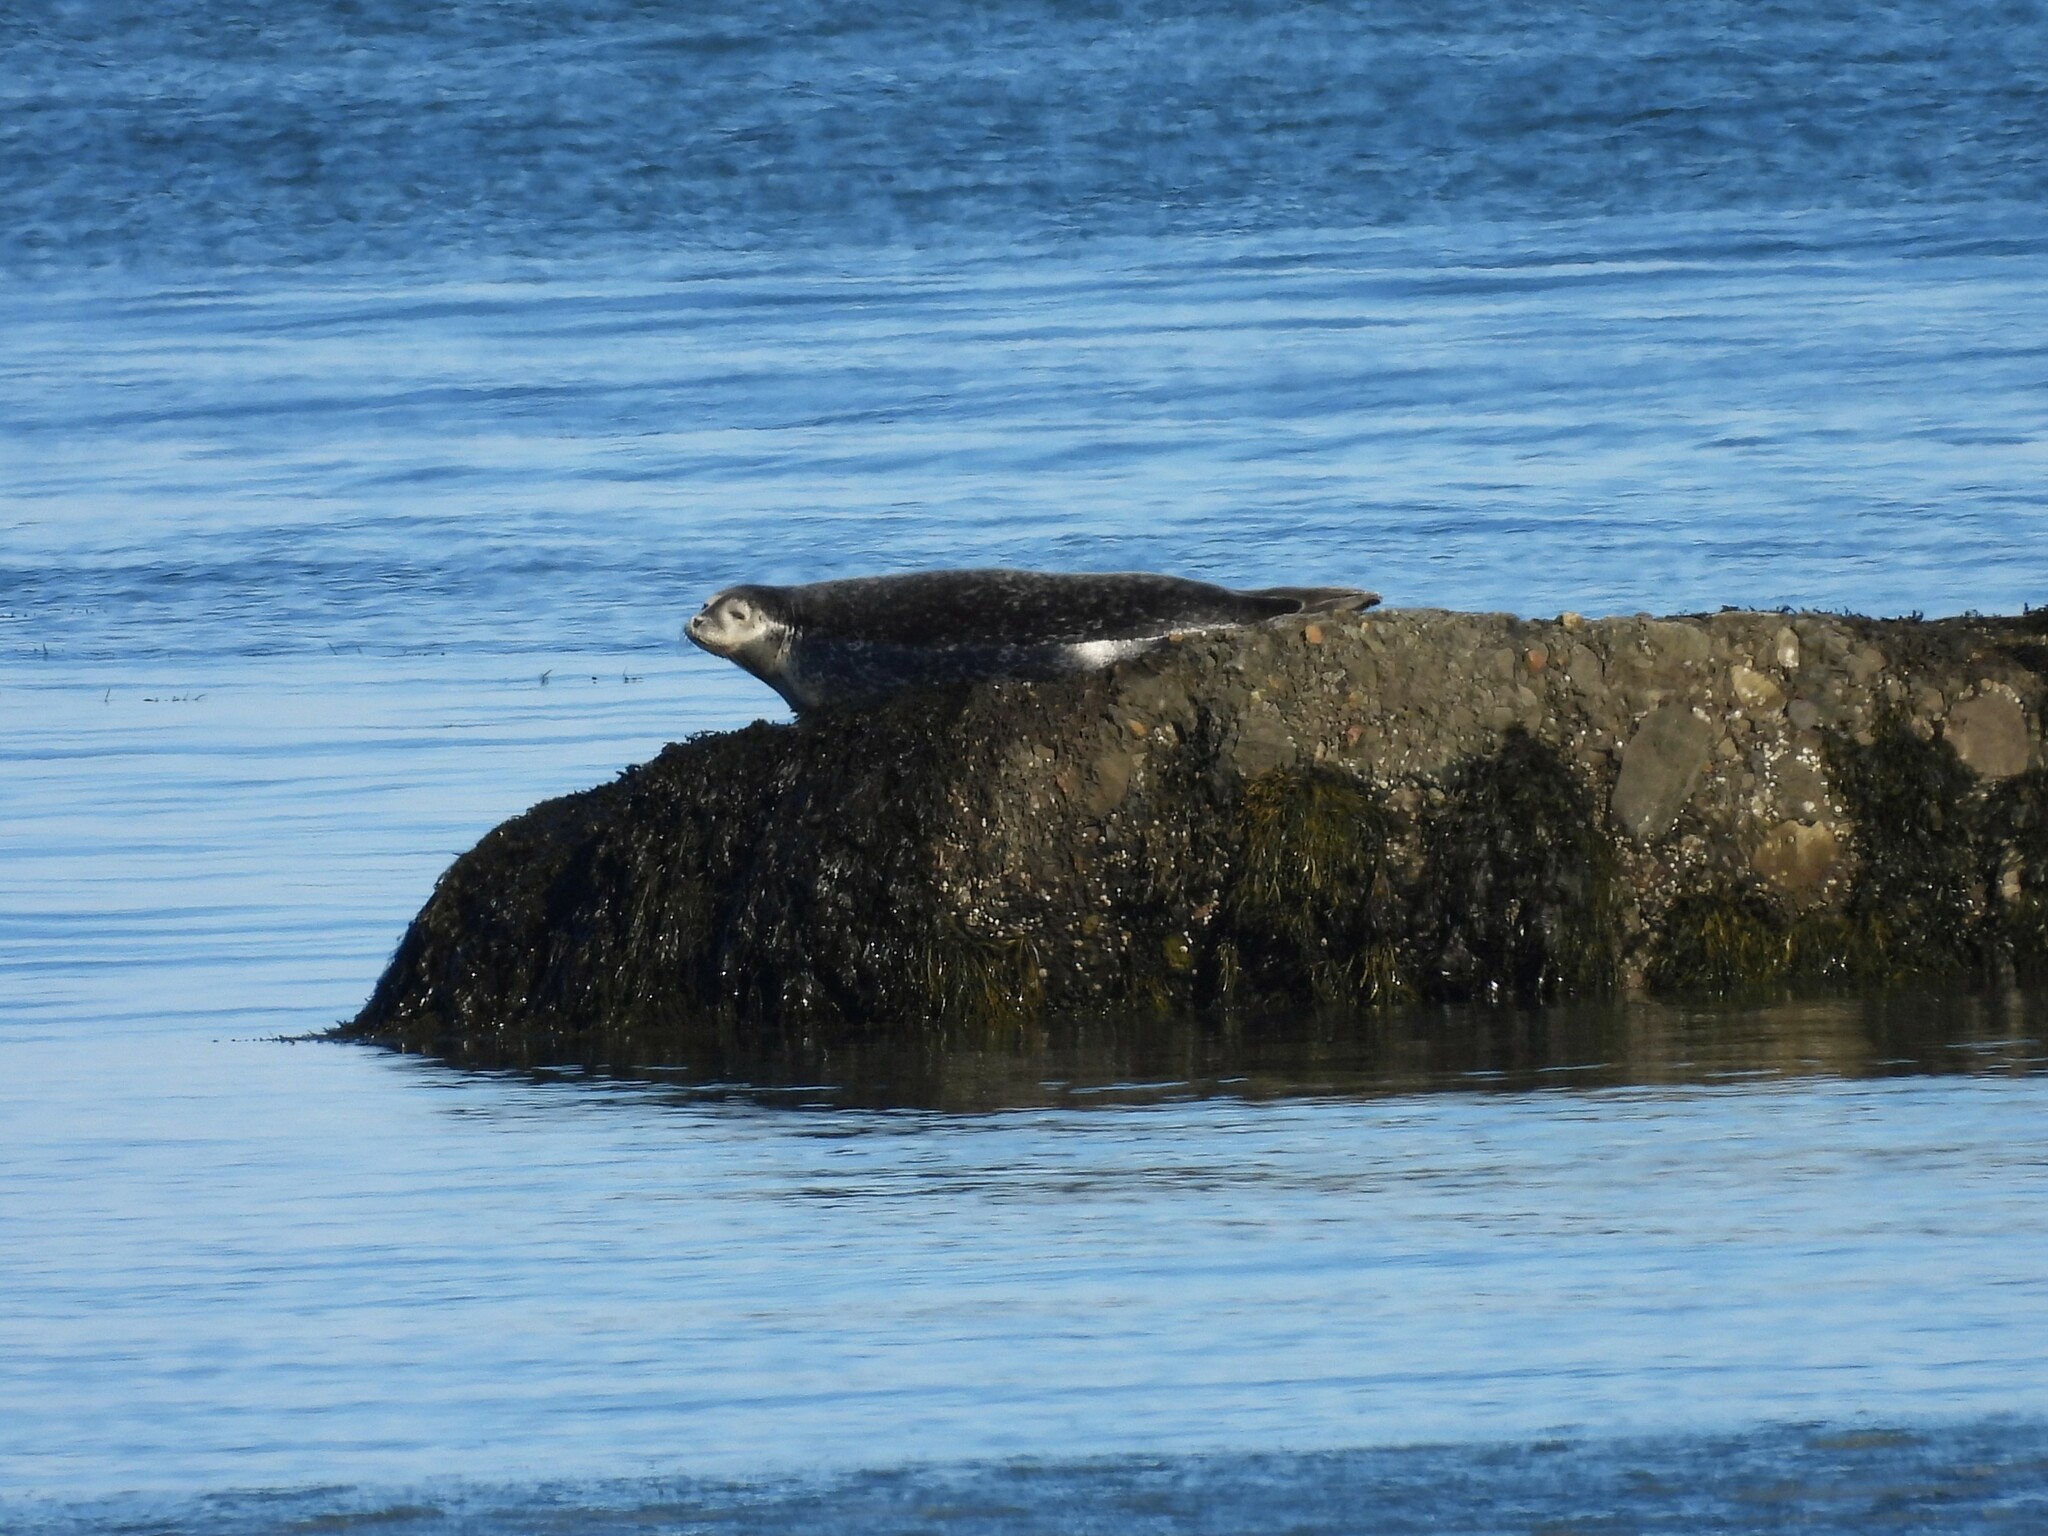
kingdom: Animalia
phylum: Chordata
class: Mammalia
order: Carnivora
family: Phocidae
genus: Phoca
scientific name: Phoca vitulina
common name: Harbor seal
